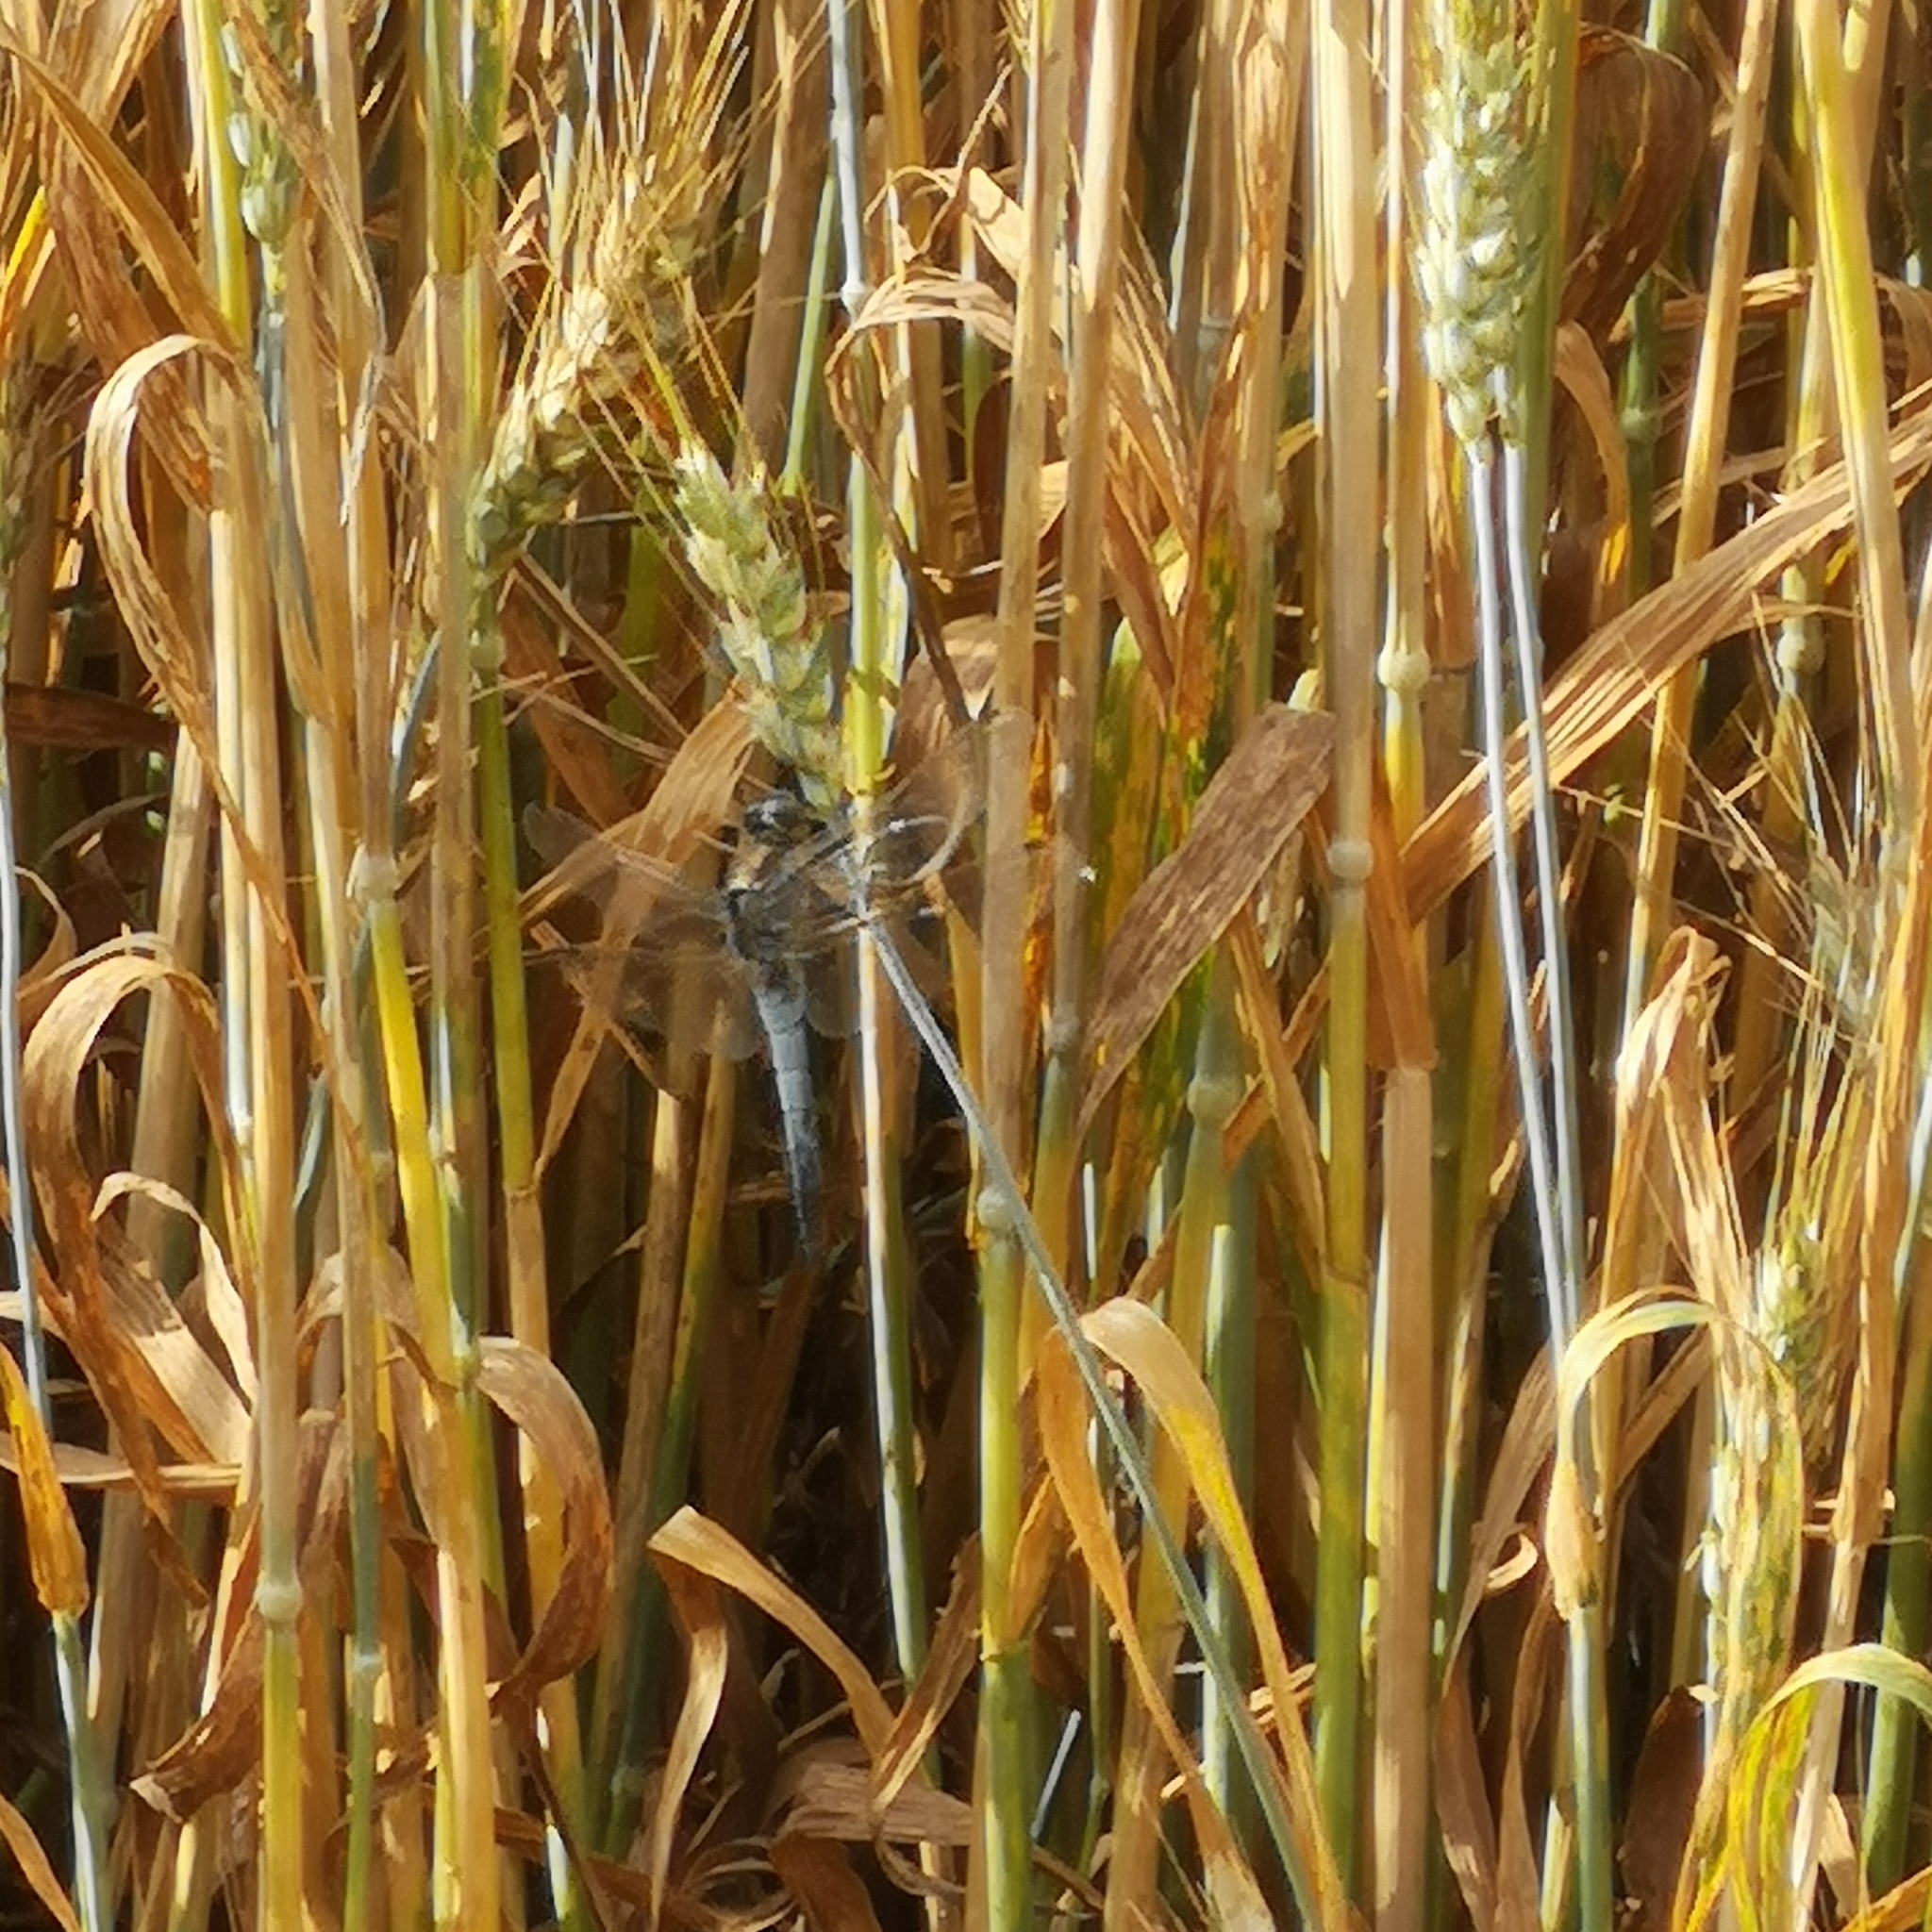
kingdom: Animalia
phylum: Arthropoda
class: Insecta
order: Odonata
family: Libellulidae
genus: Orthetrum
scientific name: Orthetrum cancellatum
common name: Black-tailed skimmer
